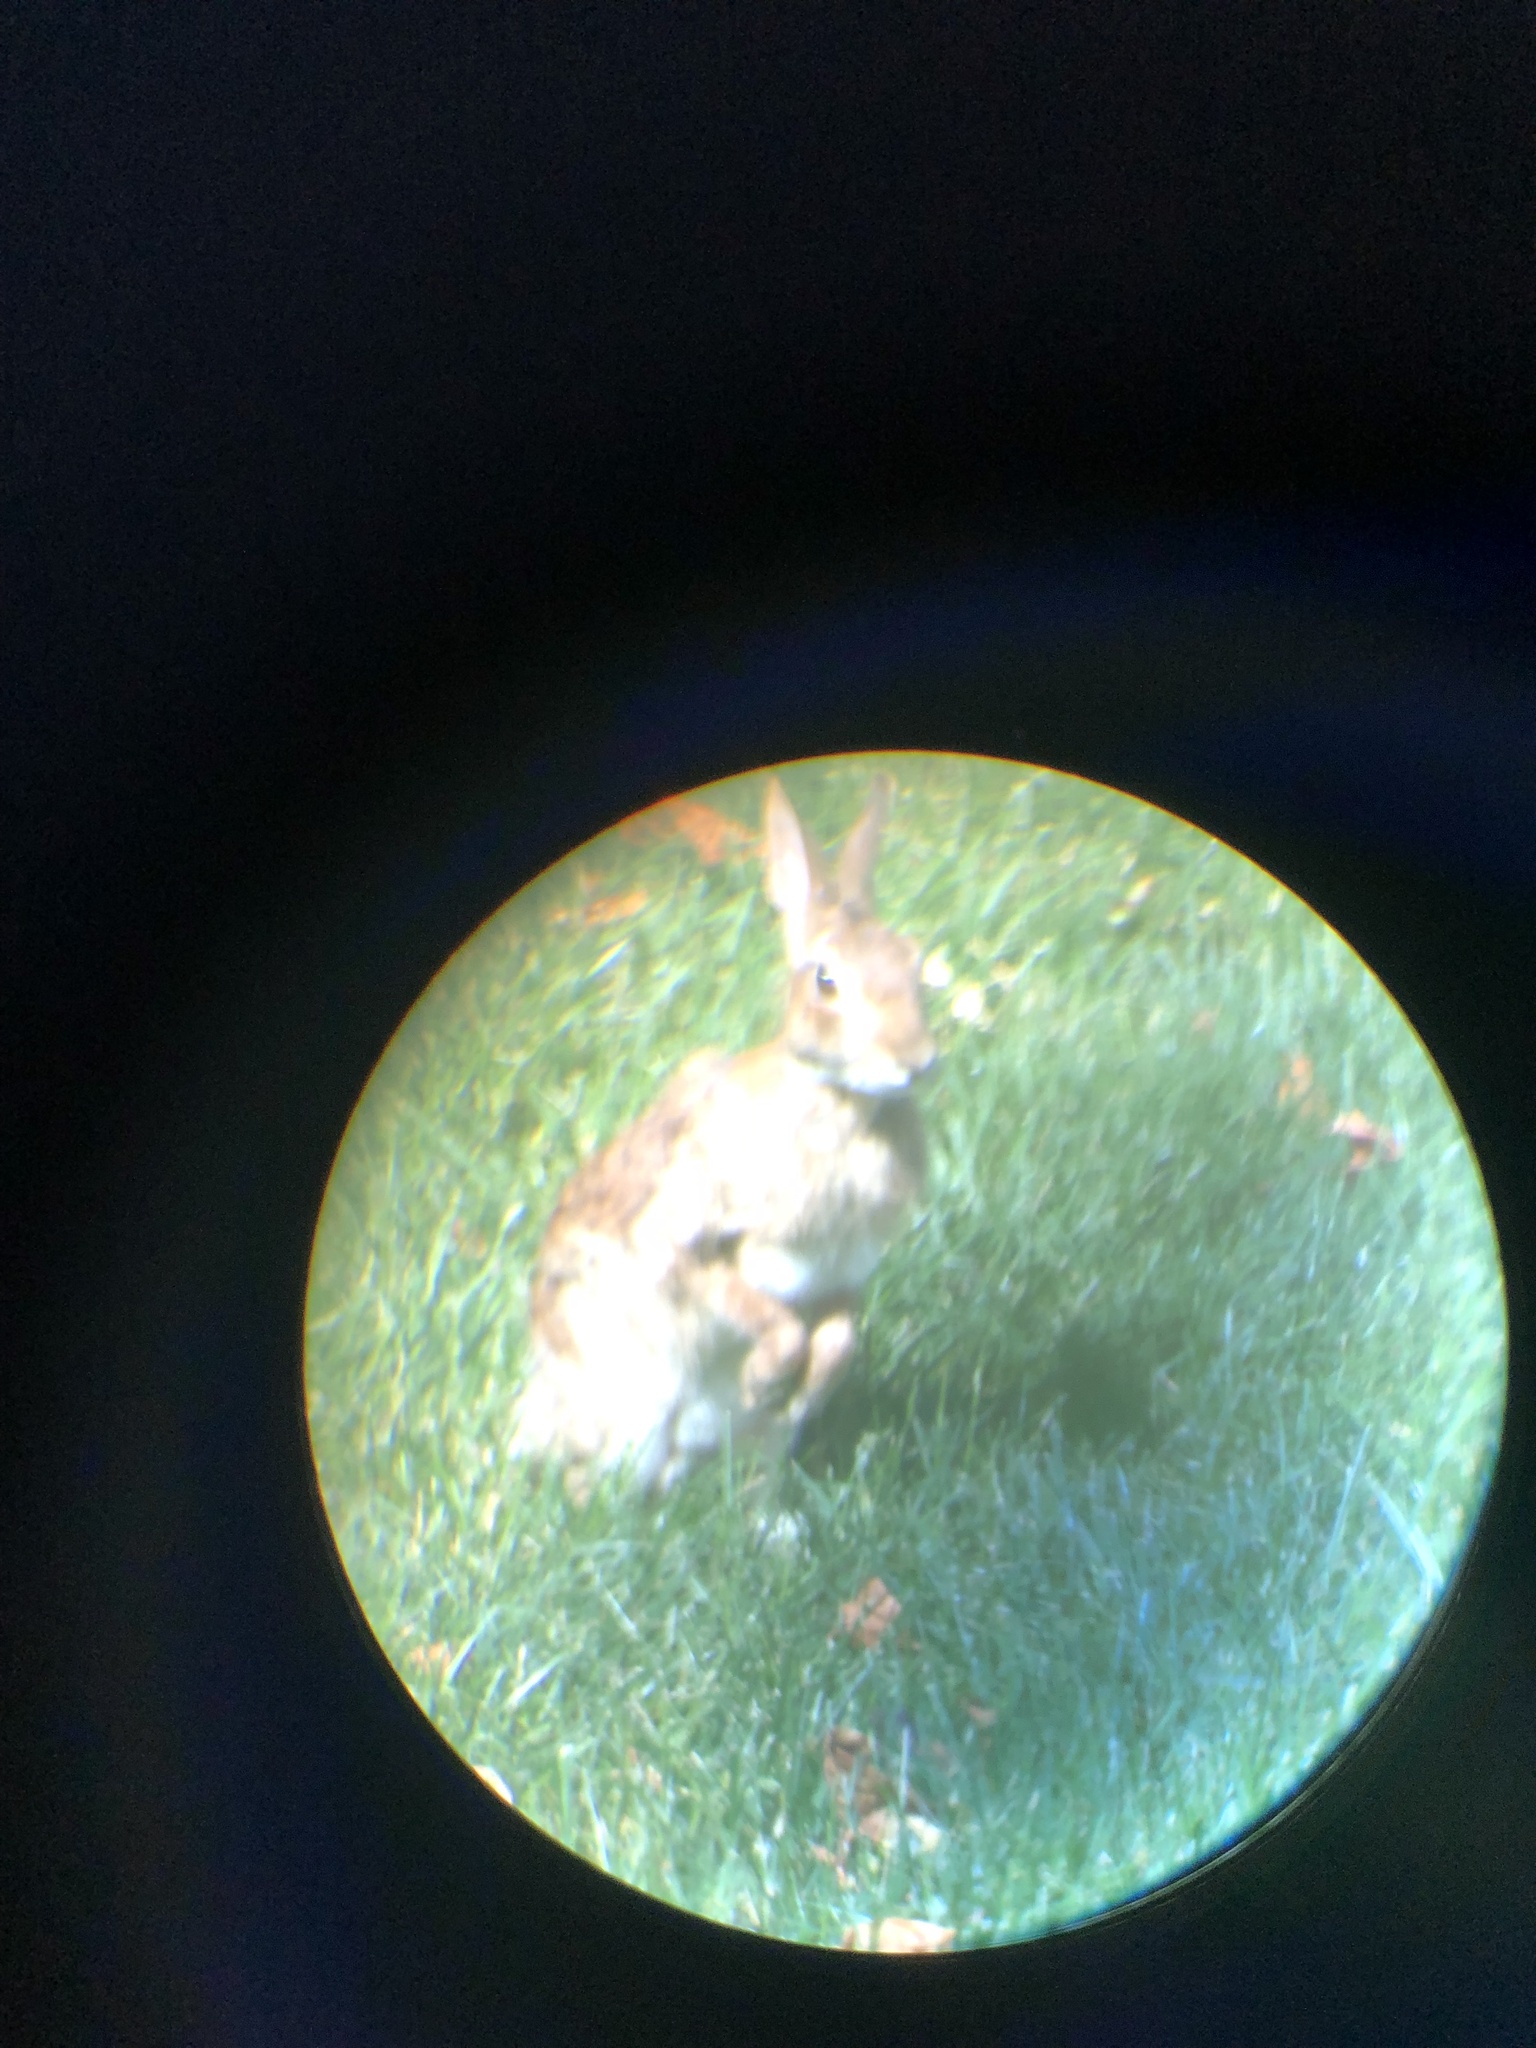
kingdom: Animalia
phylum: Chordata
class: Mammalia
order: Lagomorpha
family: Leporidae
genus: Sylvilagus
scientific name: Sylvilagus floridanus
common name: Eastern cottontail
